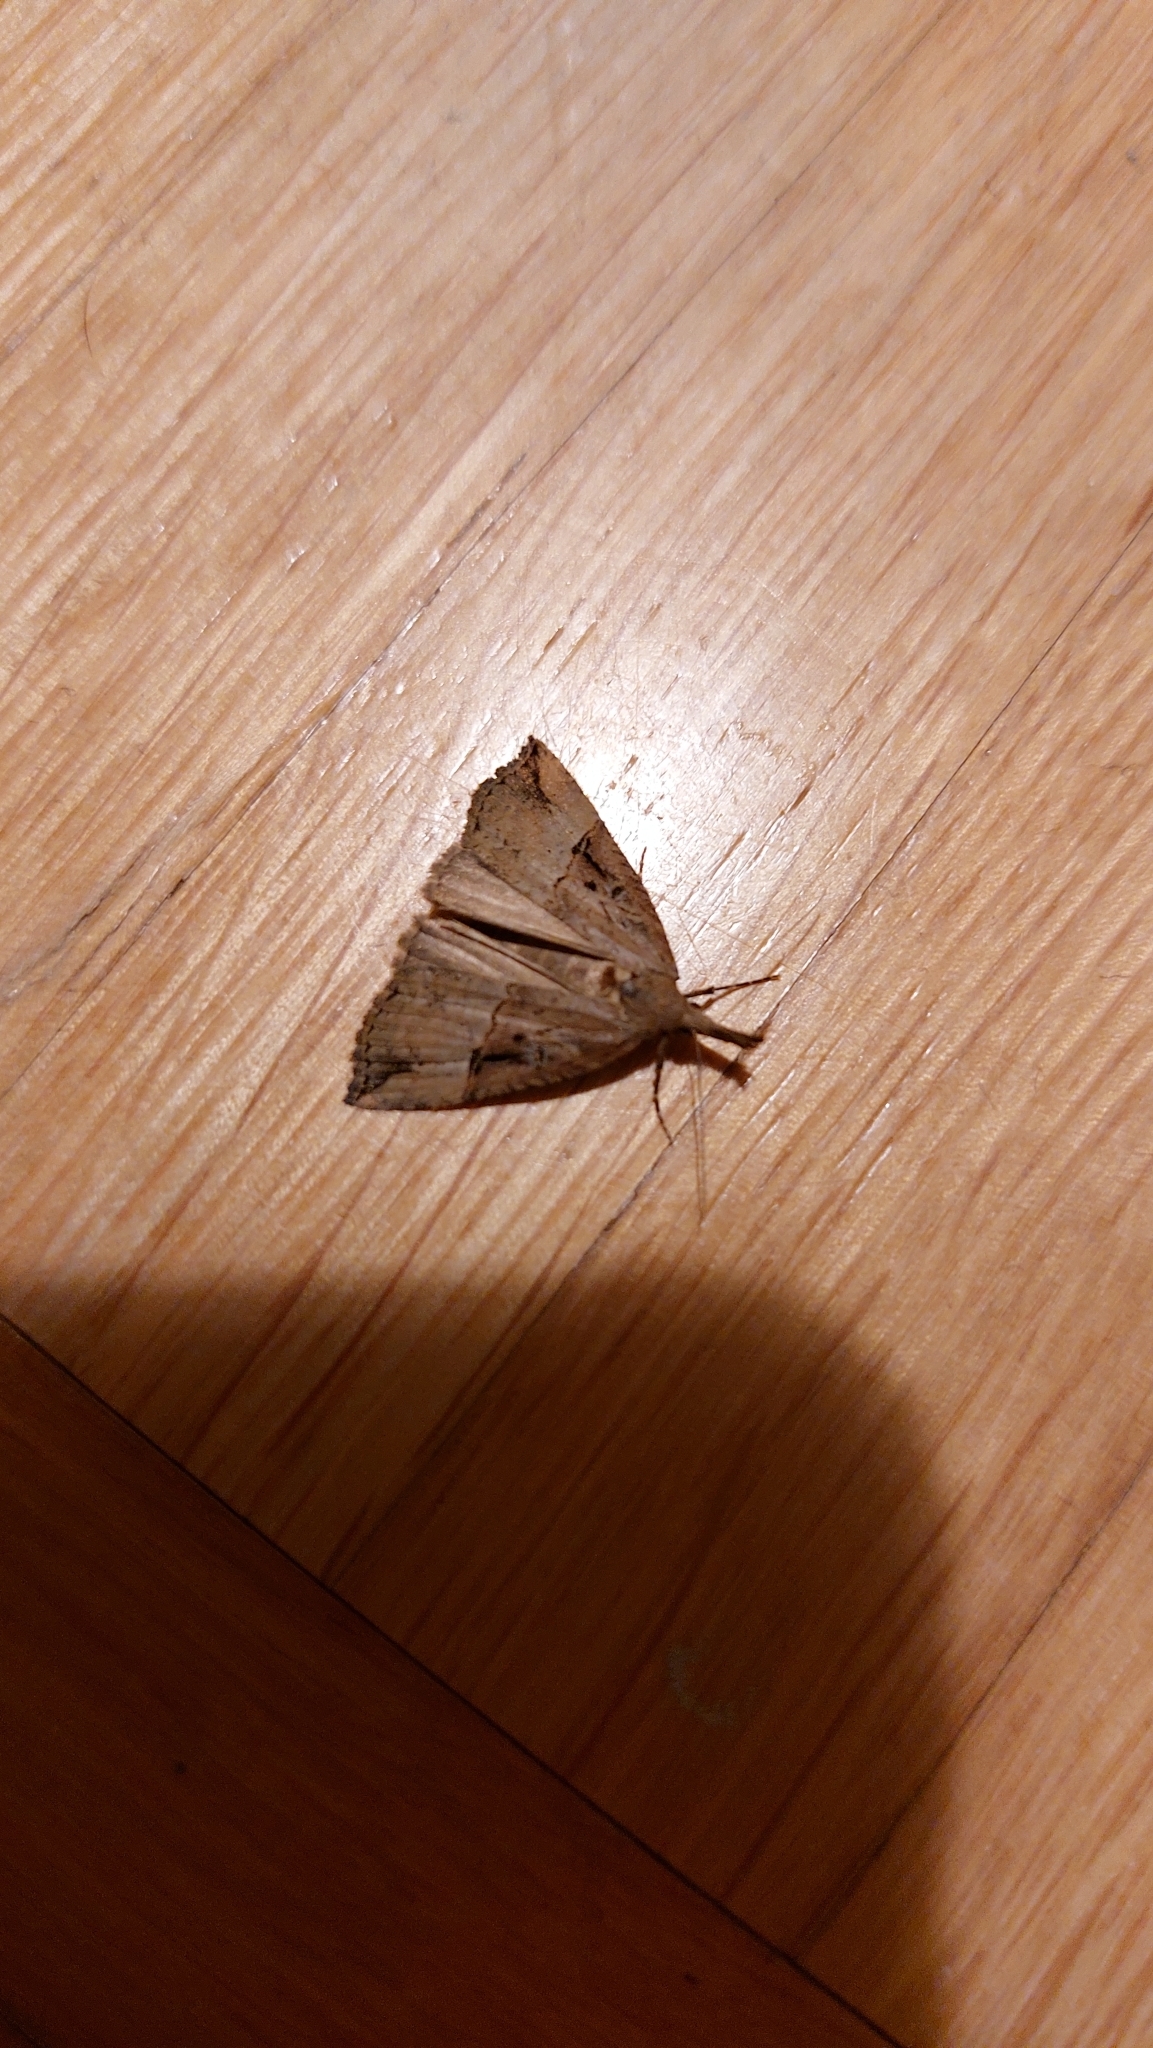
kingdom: Animalia
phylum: Arthropoda
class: Insecta
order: Lepidoptera
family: Erebidae
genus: Hypena
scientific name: Hypena rostralis
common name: Buttoned snout
